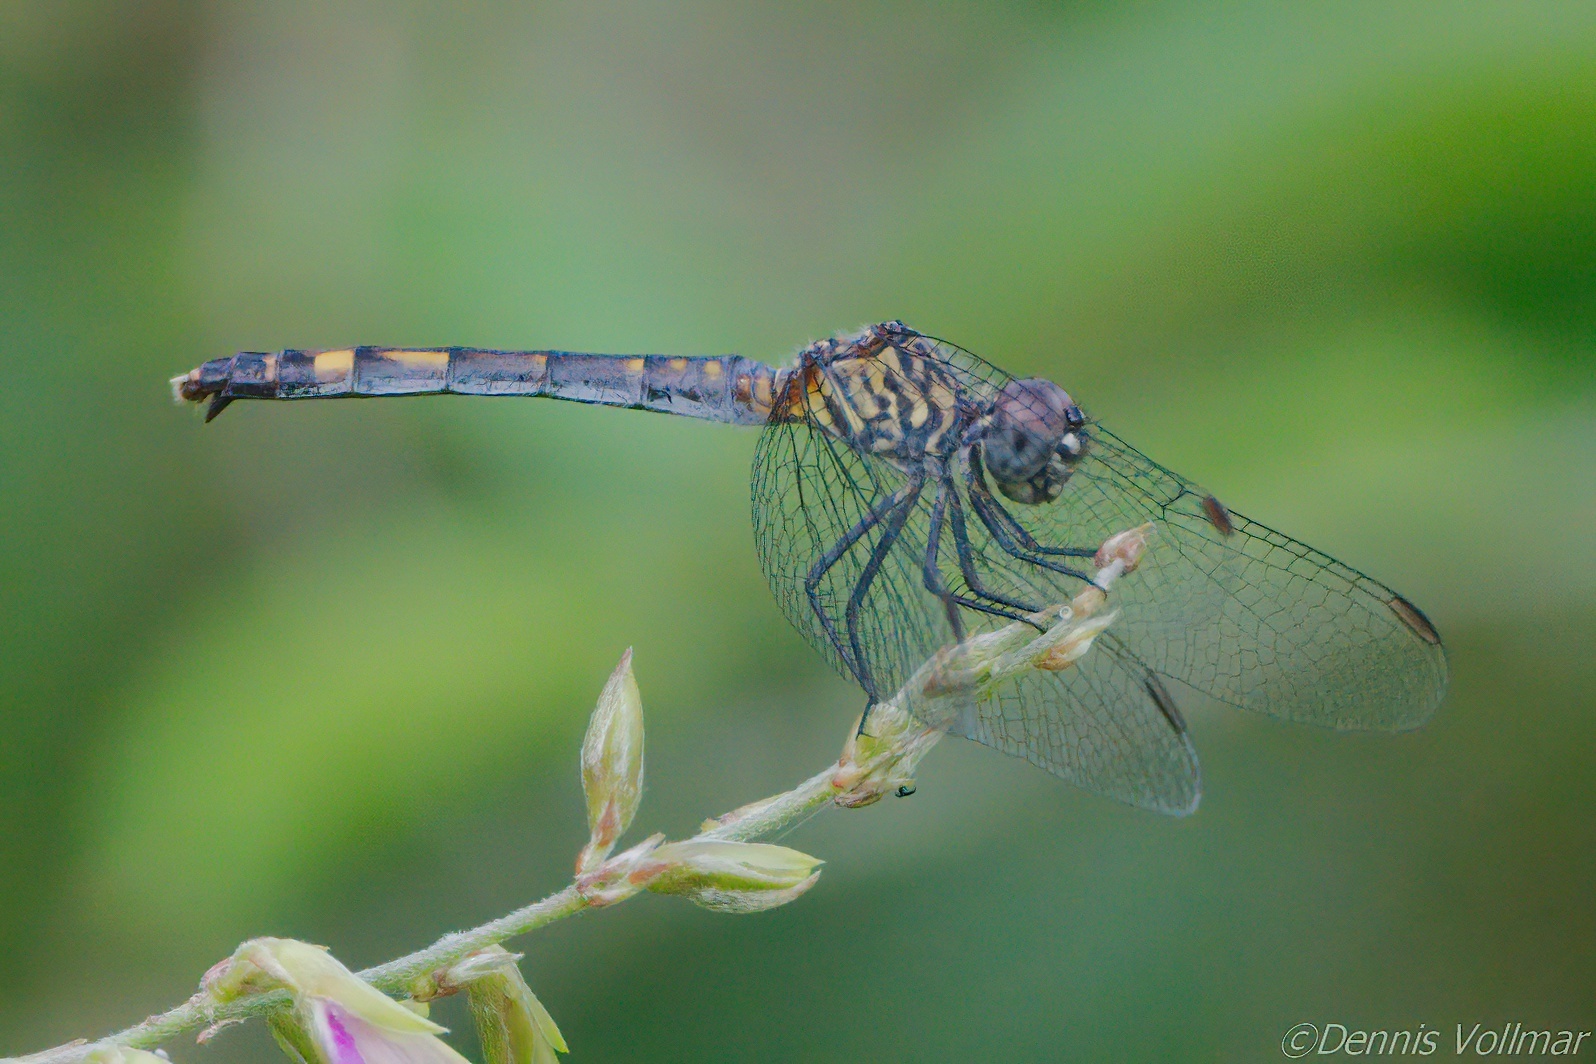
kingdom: Animalia
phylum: Arthropoda
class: Insecta
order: Odonata
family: Libellulidae
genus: Erythrodiplax
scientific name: Erythrodiplax berenice
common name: Seaside dragonlet
